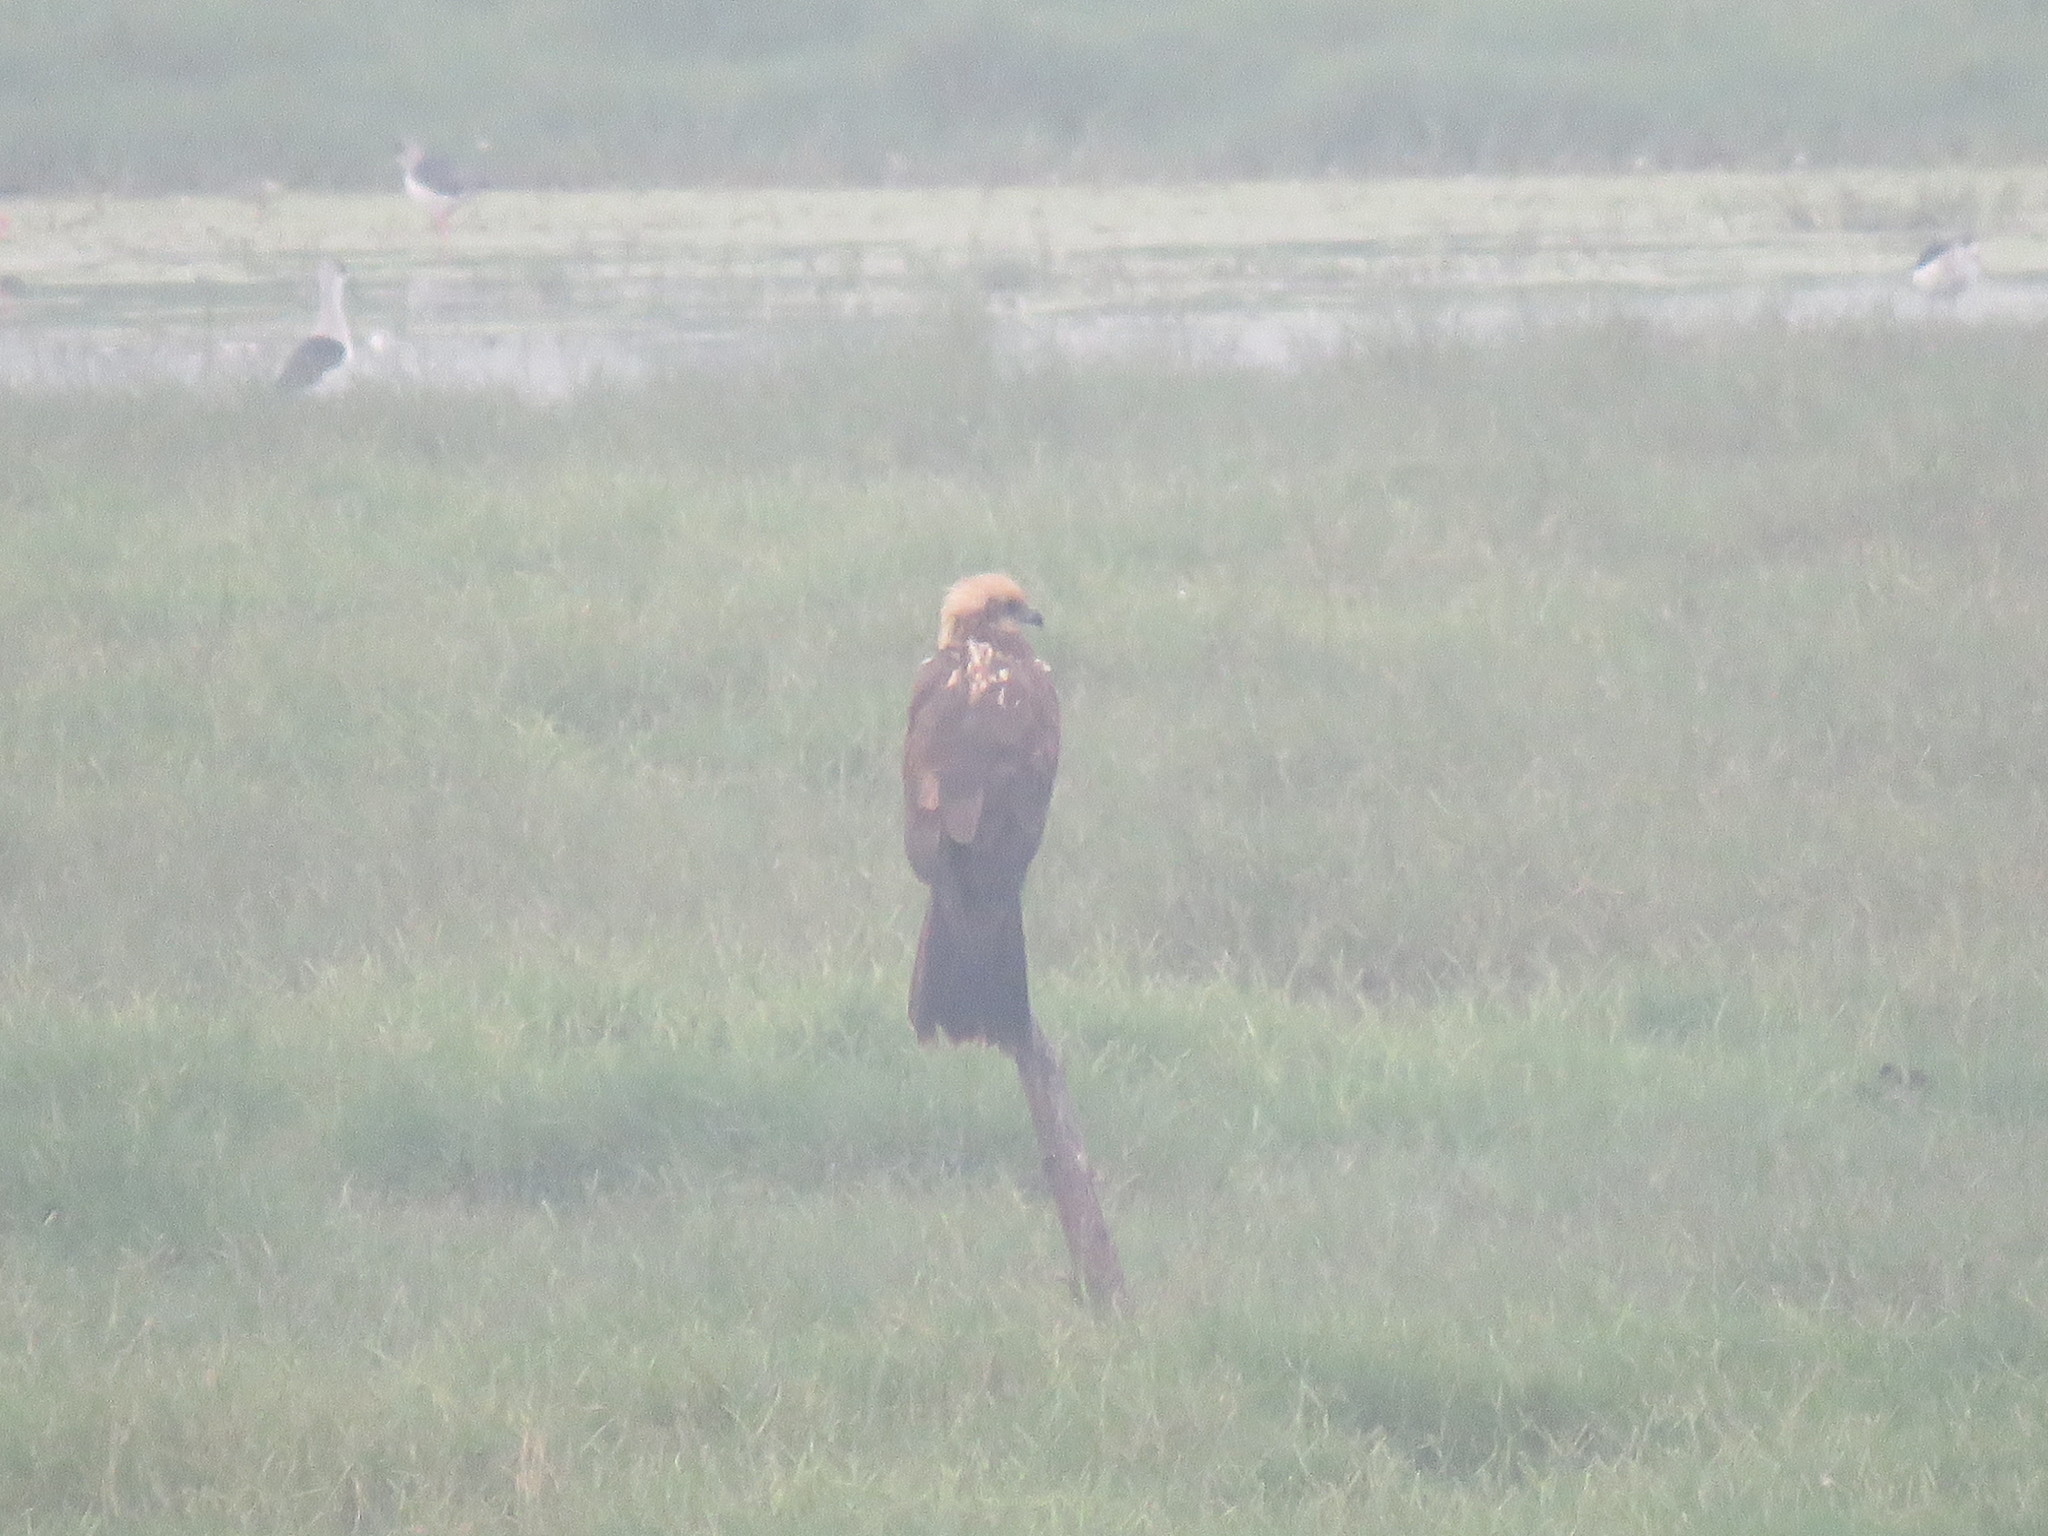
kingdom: Animalia
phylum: Chordata
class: Aves
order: Accipitriformes
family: Accipitridae
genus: Circus
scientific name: Circus aeruginosus
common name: Western marsh harrier
